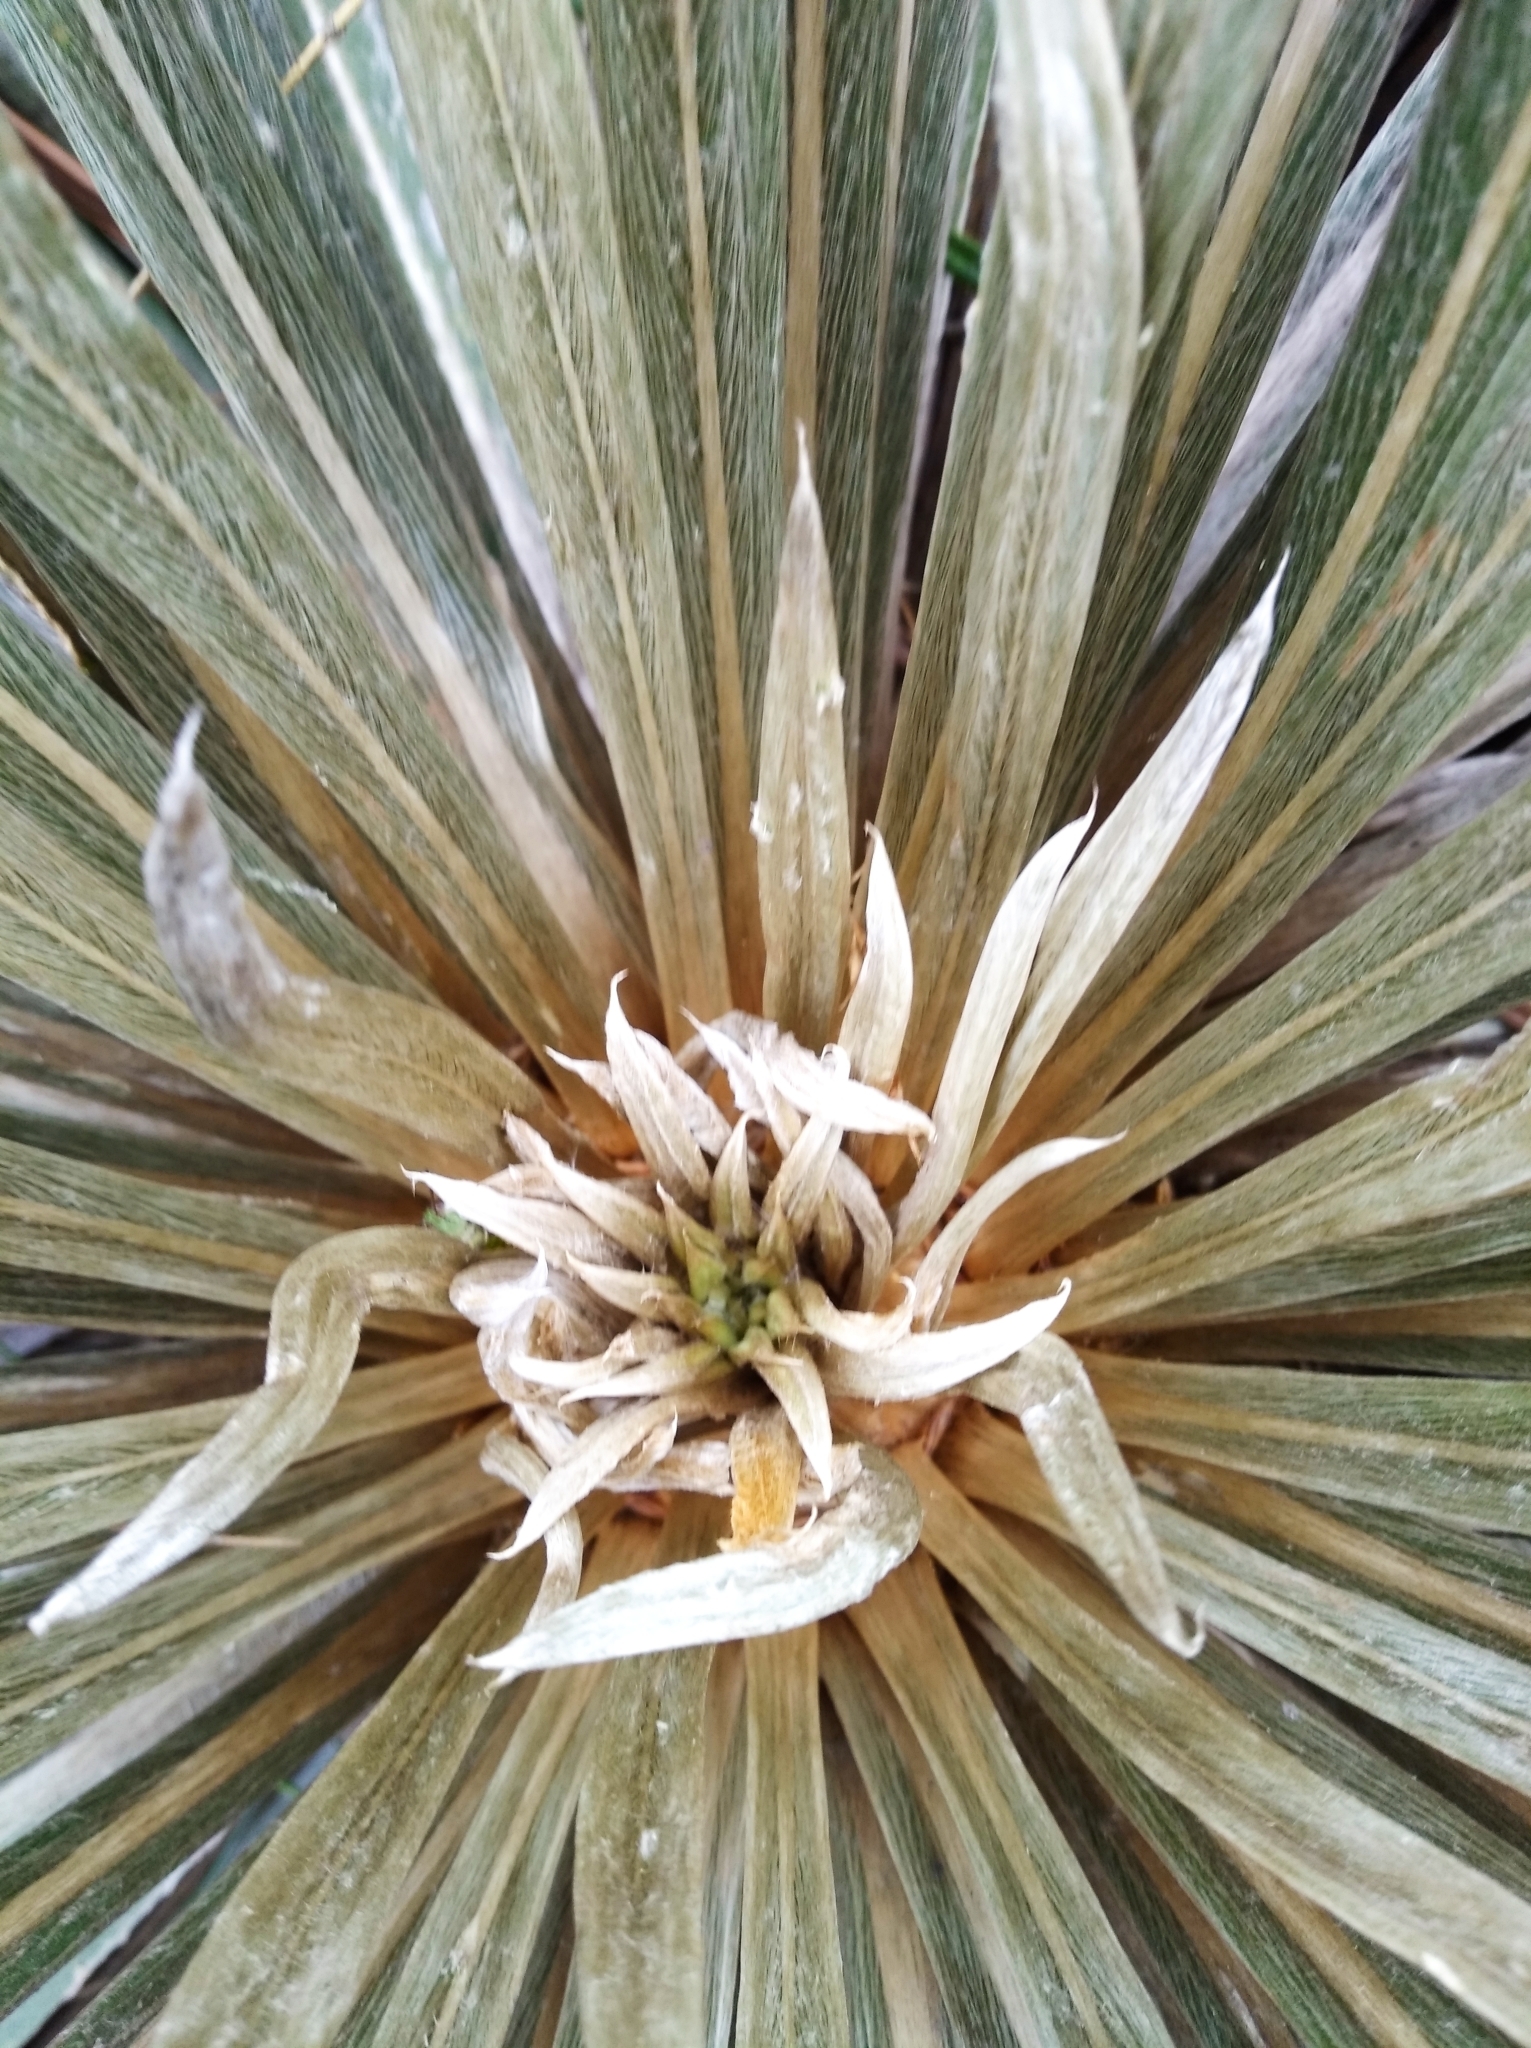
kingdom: Plantae
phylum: Tracheophyta
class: Magnoliopsida
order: Asterales
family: Asteraceae
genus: Espeletia
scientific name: Espeletia bracteosa
